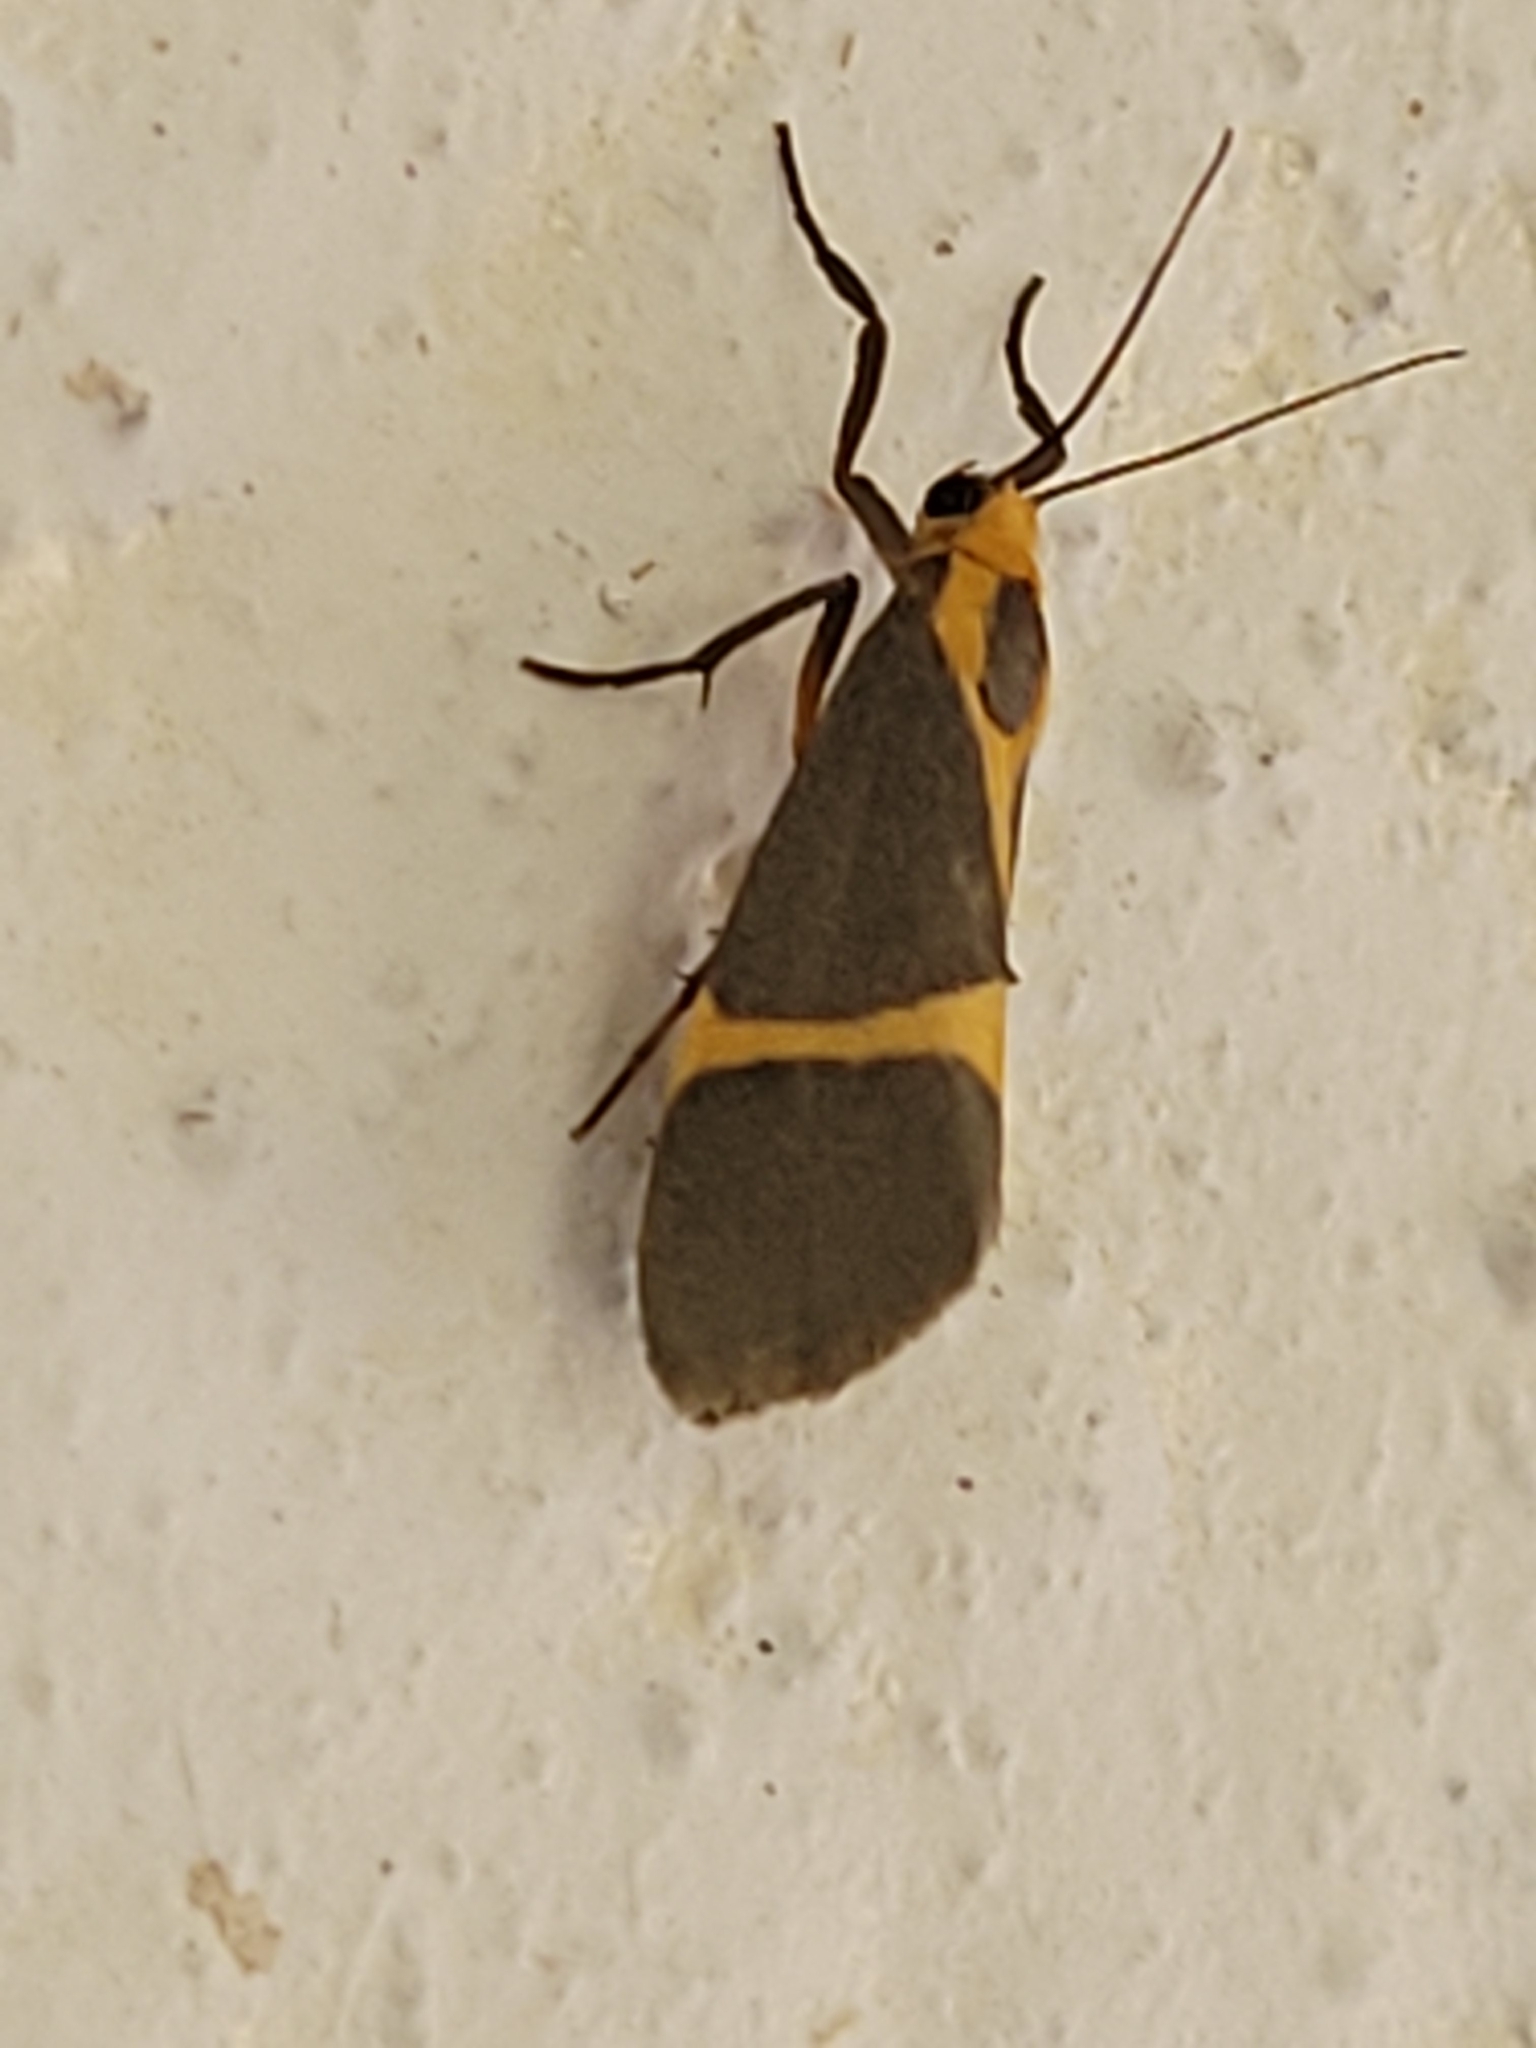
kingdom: Animalia
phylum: Arthropoda
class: Insecta
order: Lepidoptera
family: Erebidae
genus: Cisthene
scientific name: Cisthene tenuifascia
